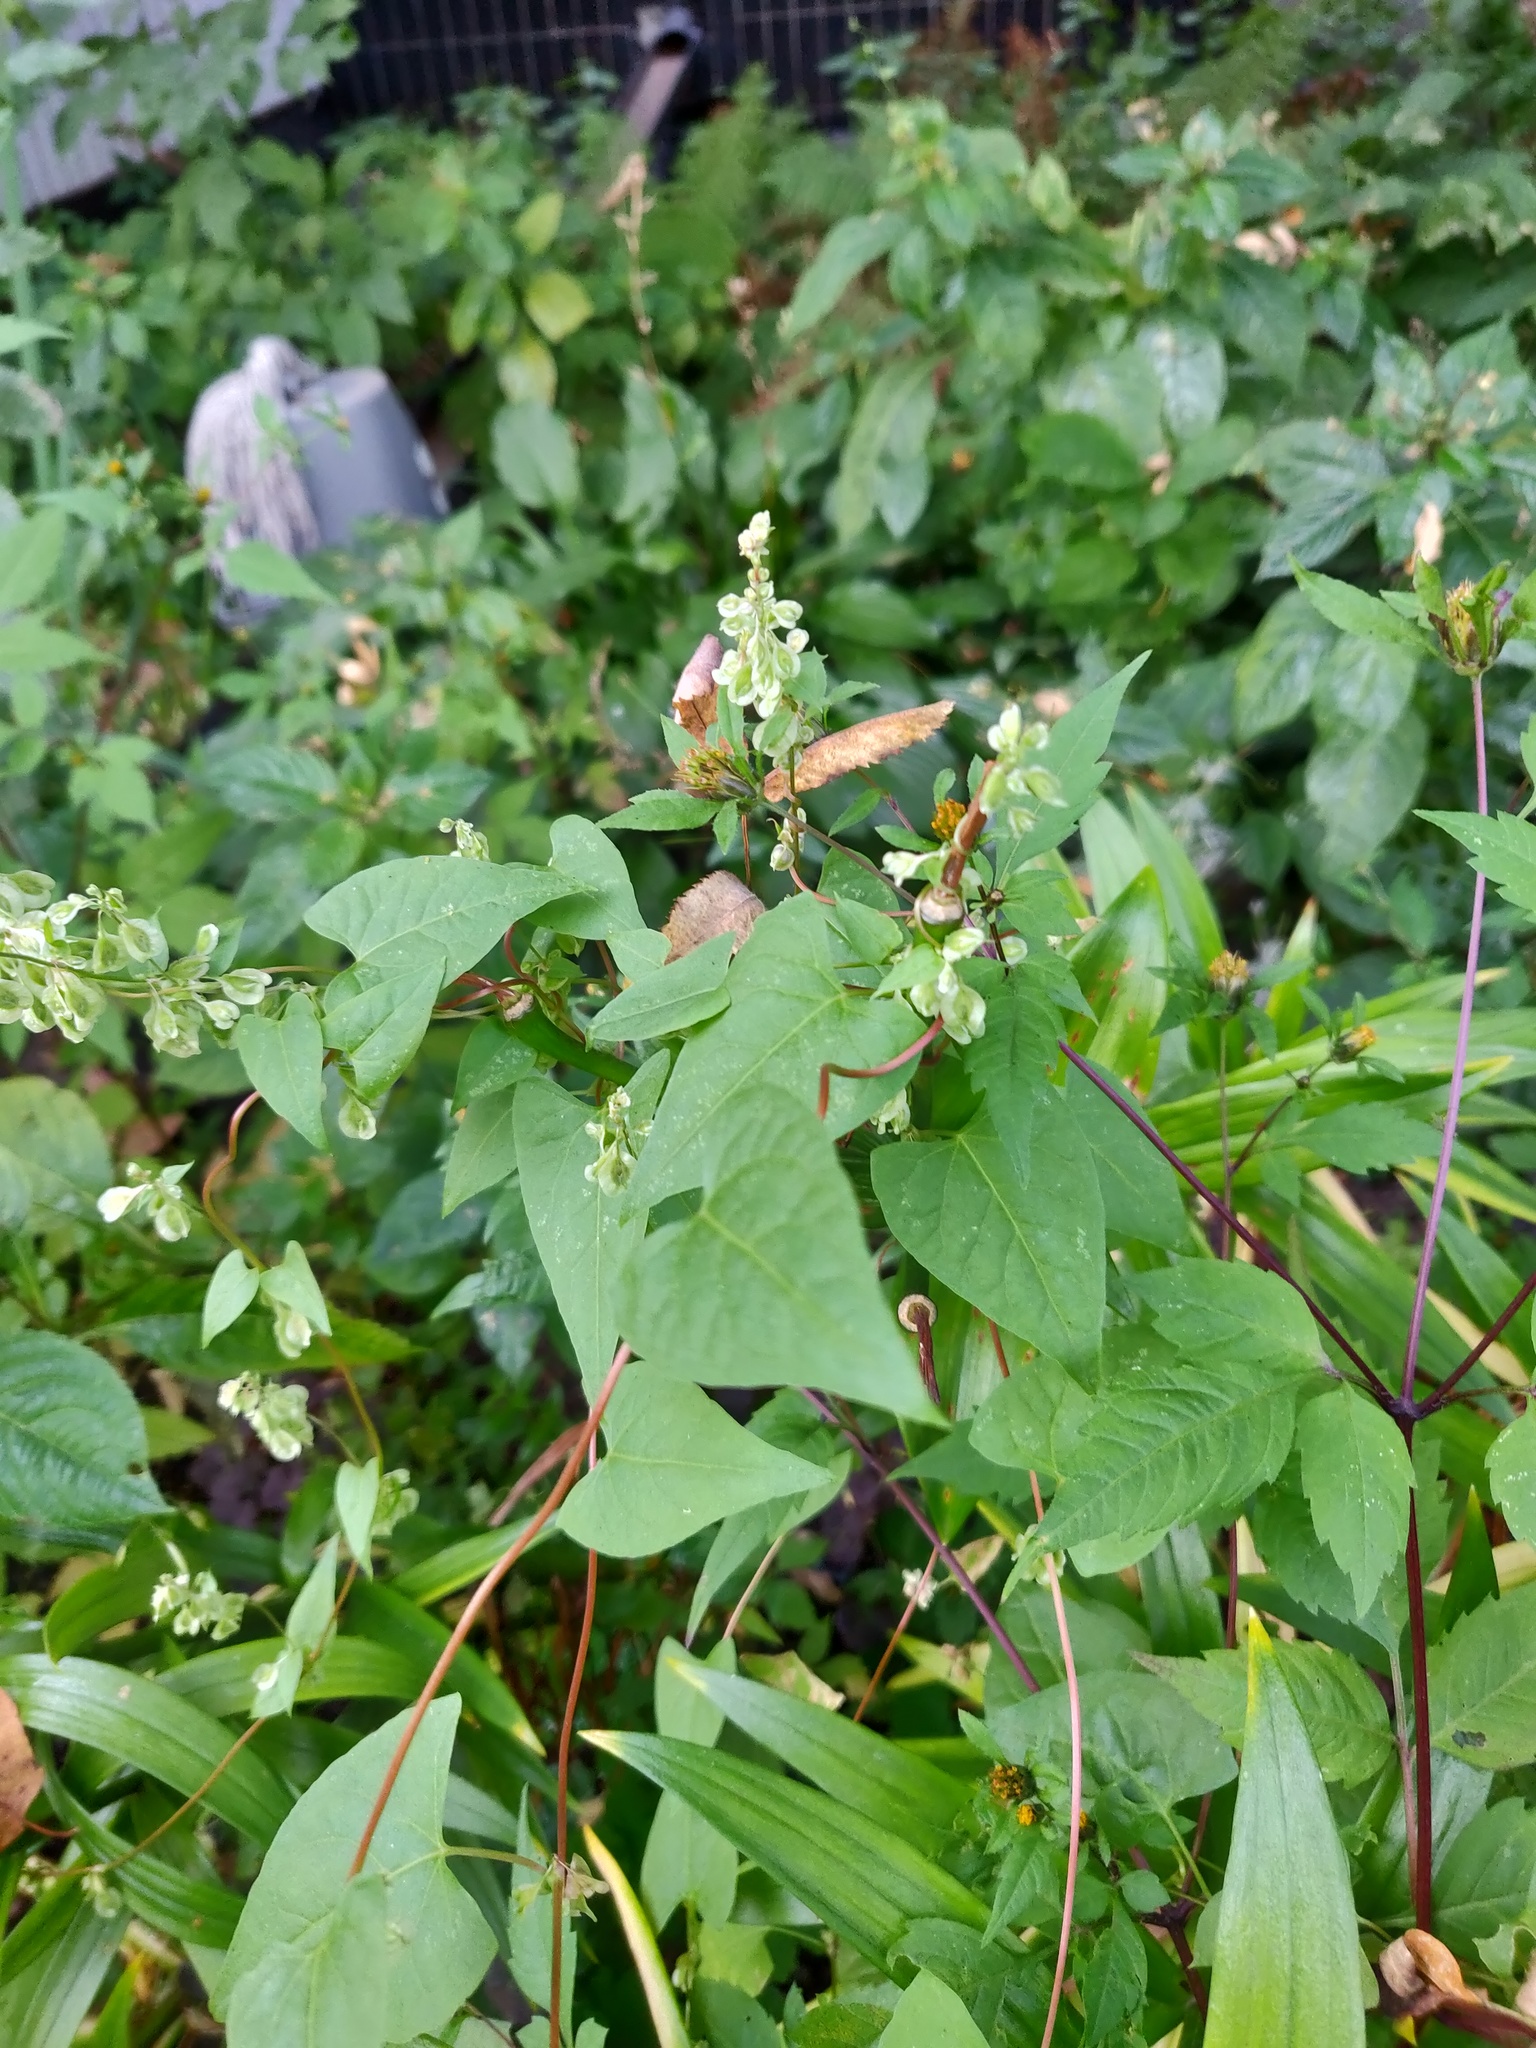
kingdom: Plantae
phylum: Tracheophyta
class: Magnoliopsida
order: Caryophyllales
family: Polygonaceae
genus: Fallopia
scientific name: Fallopia dumetorum
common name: Copse-bindweed
